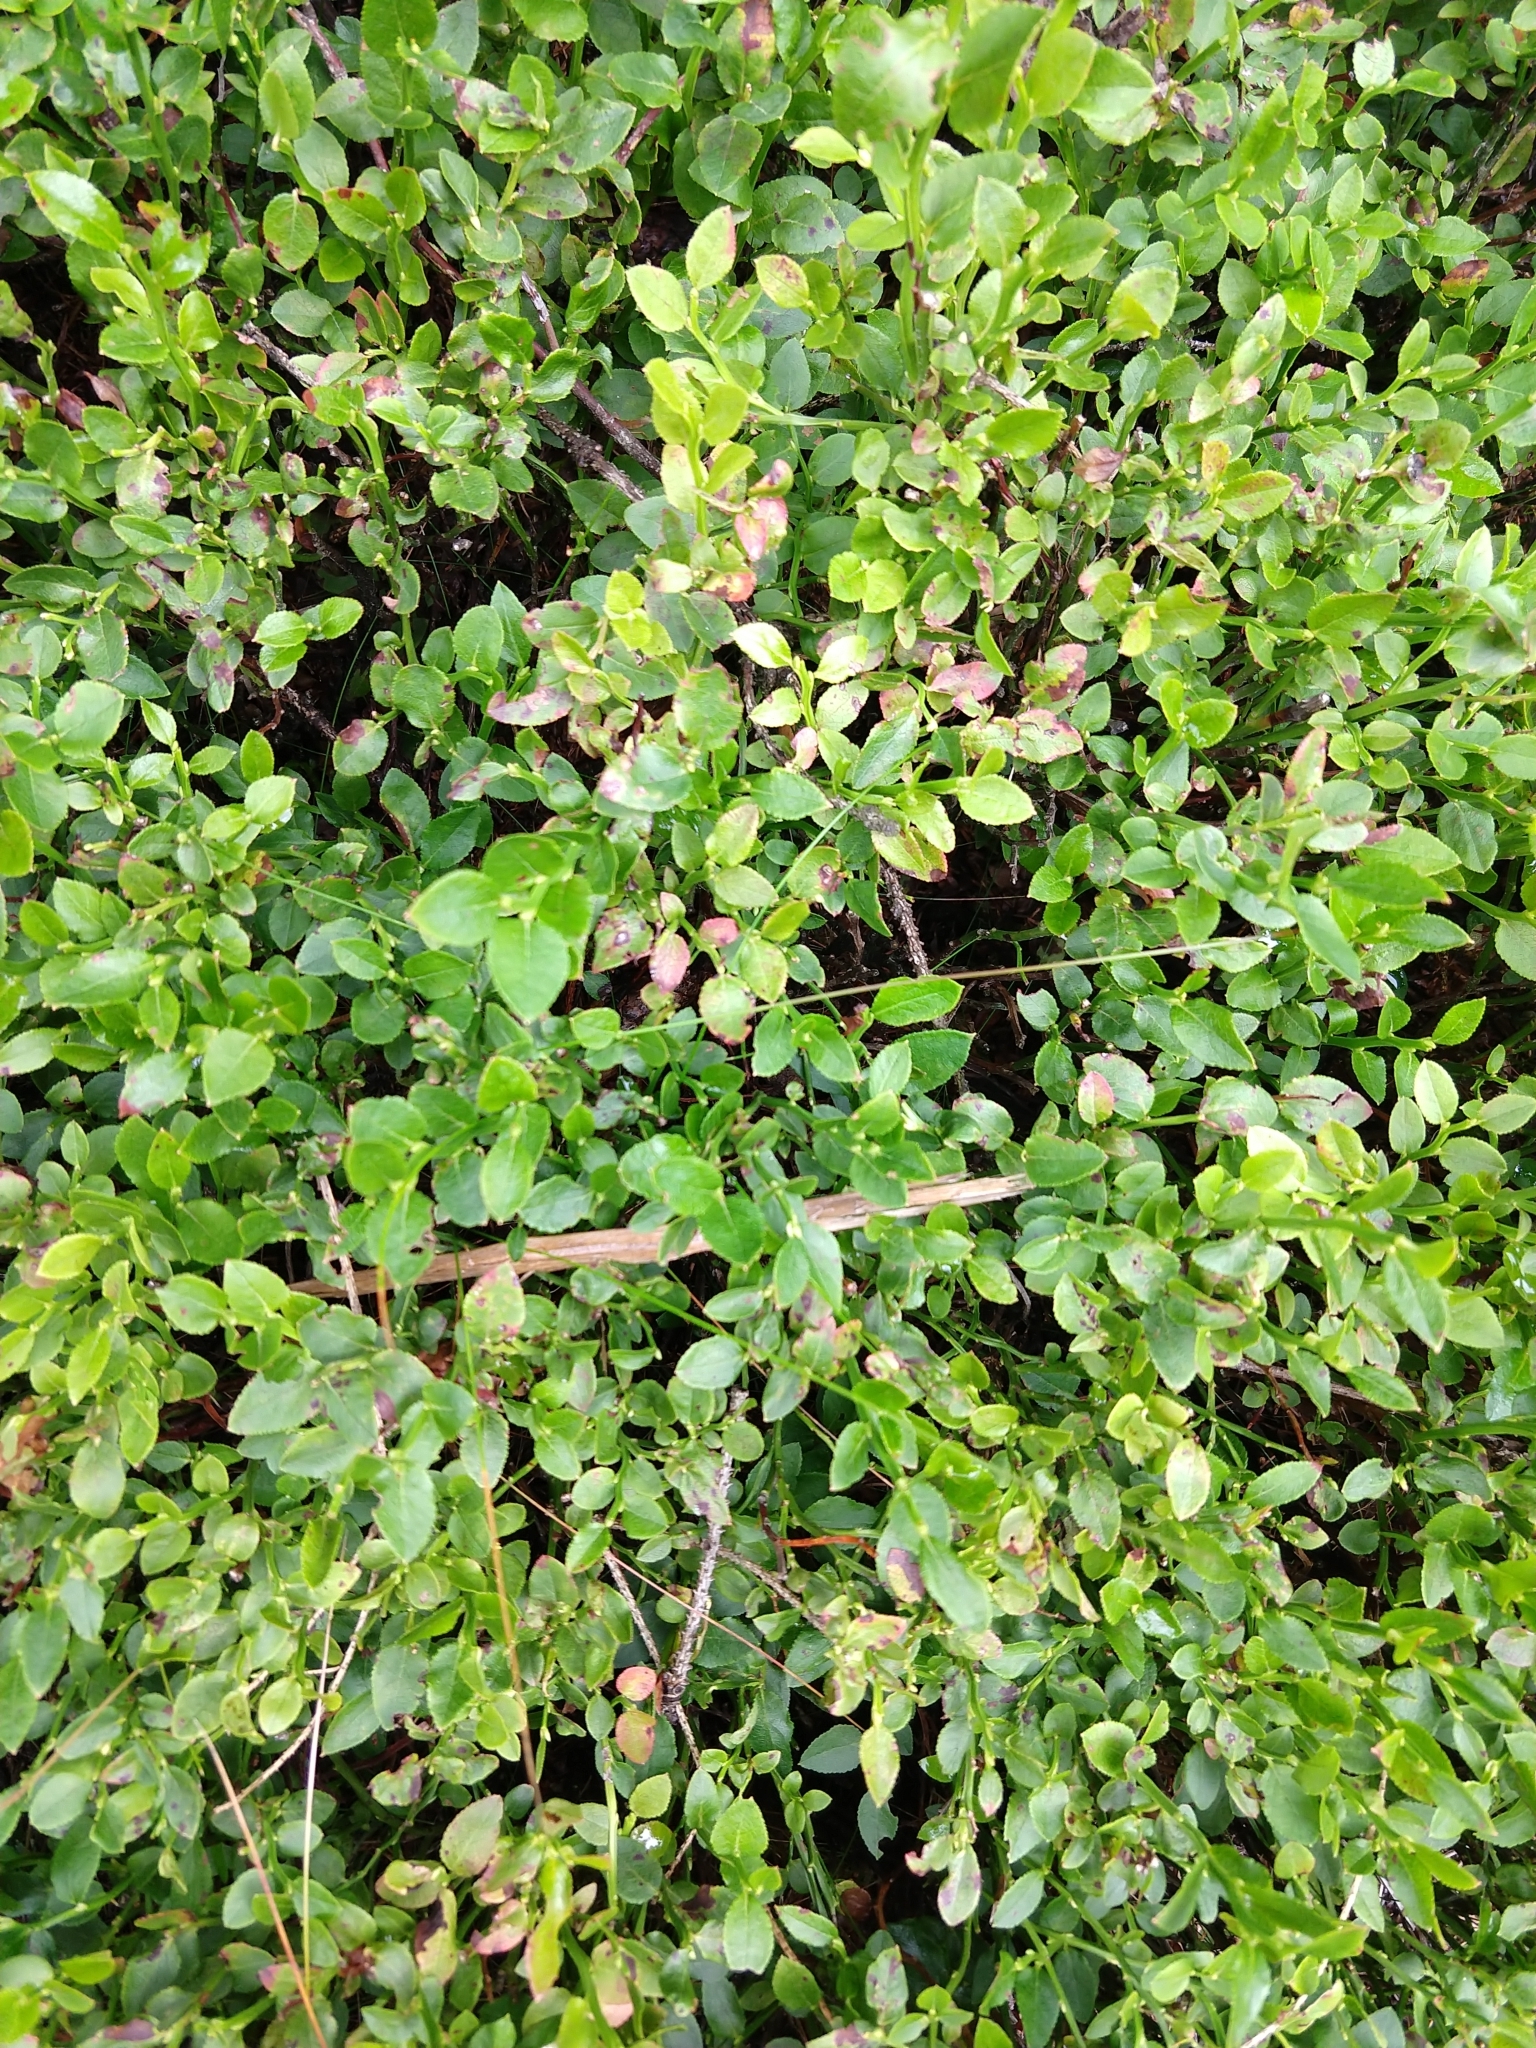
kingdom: Plantae
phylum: Tracheophyta
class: Magnoliopsida
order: Ericales
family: Ericaceae
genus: Vaccinium
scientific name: Vaccinium myrtillus
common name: Bilberry
